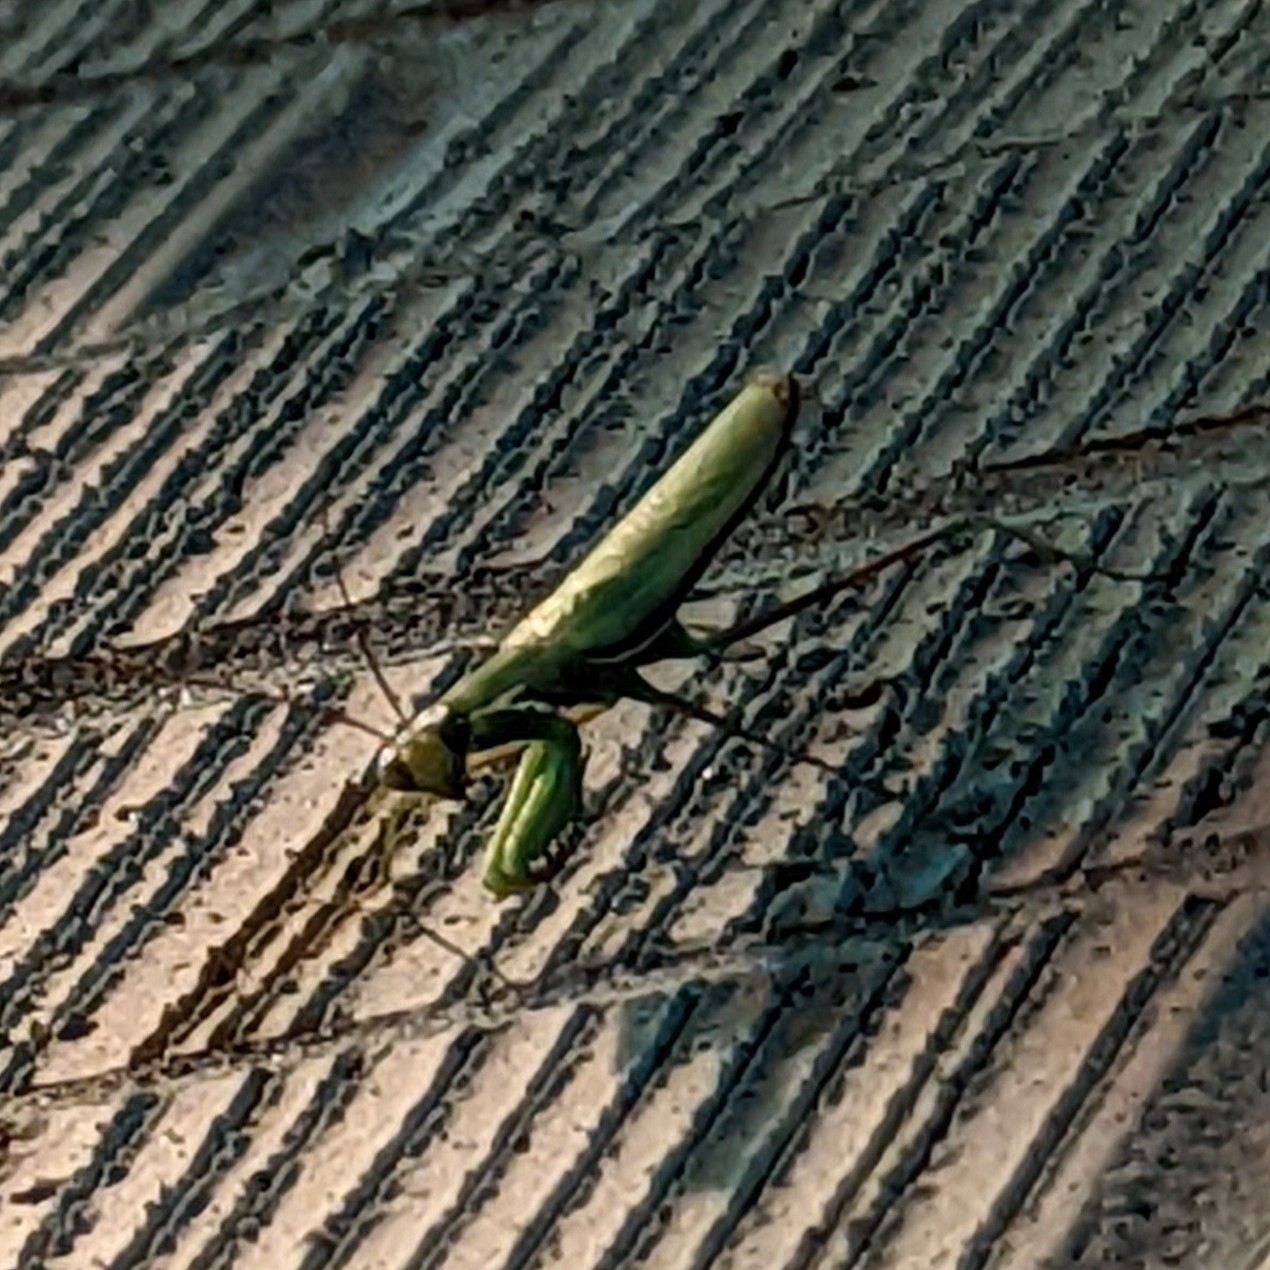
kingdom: Animalia
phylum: Arthropoda
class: Insecta
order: Mantodea
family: Mantidae
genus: Mantis
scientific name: Mantis religiosa
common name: Praying mantis
